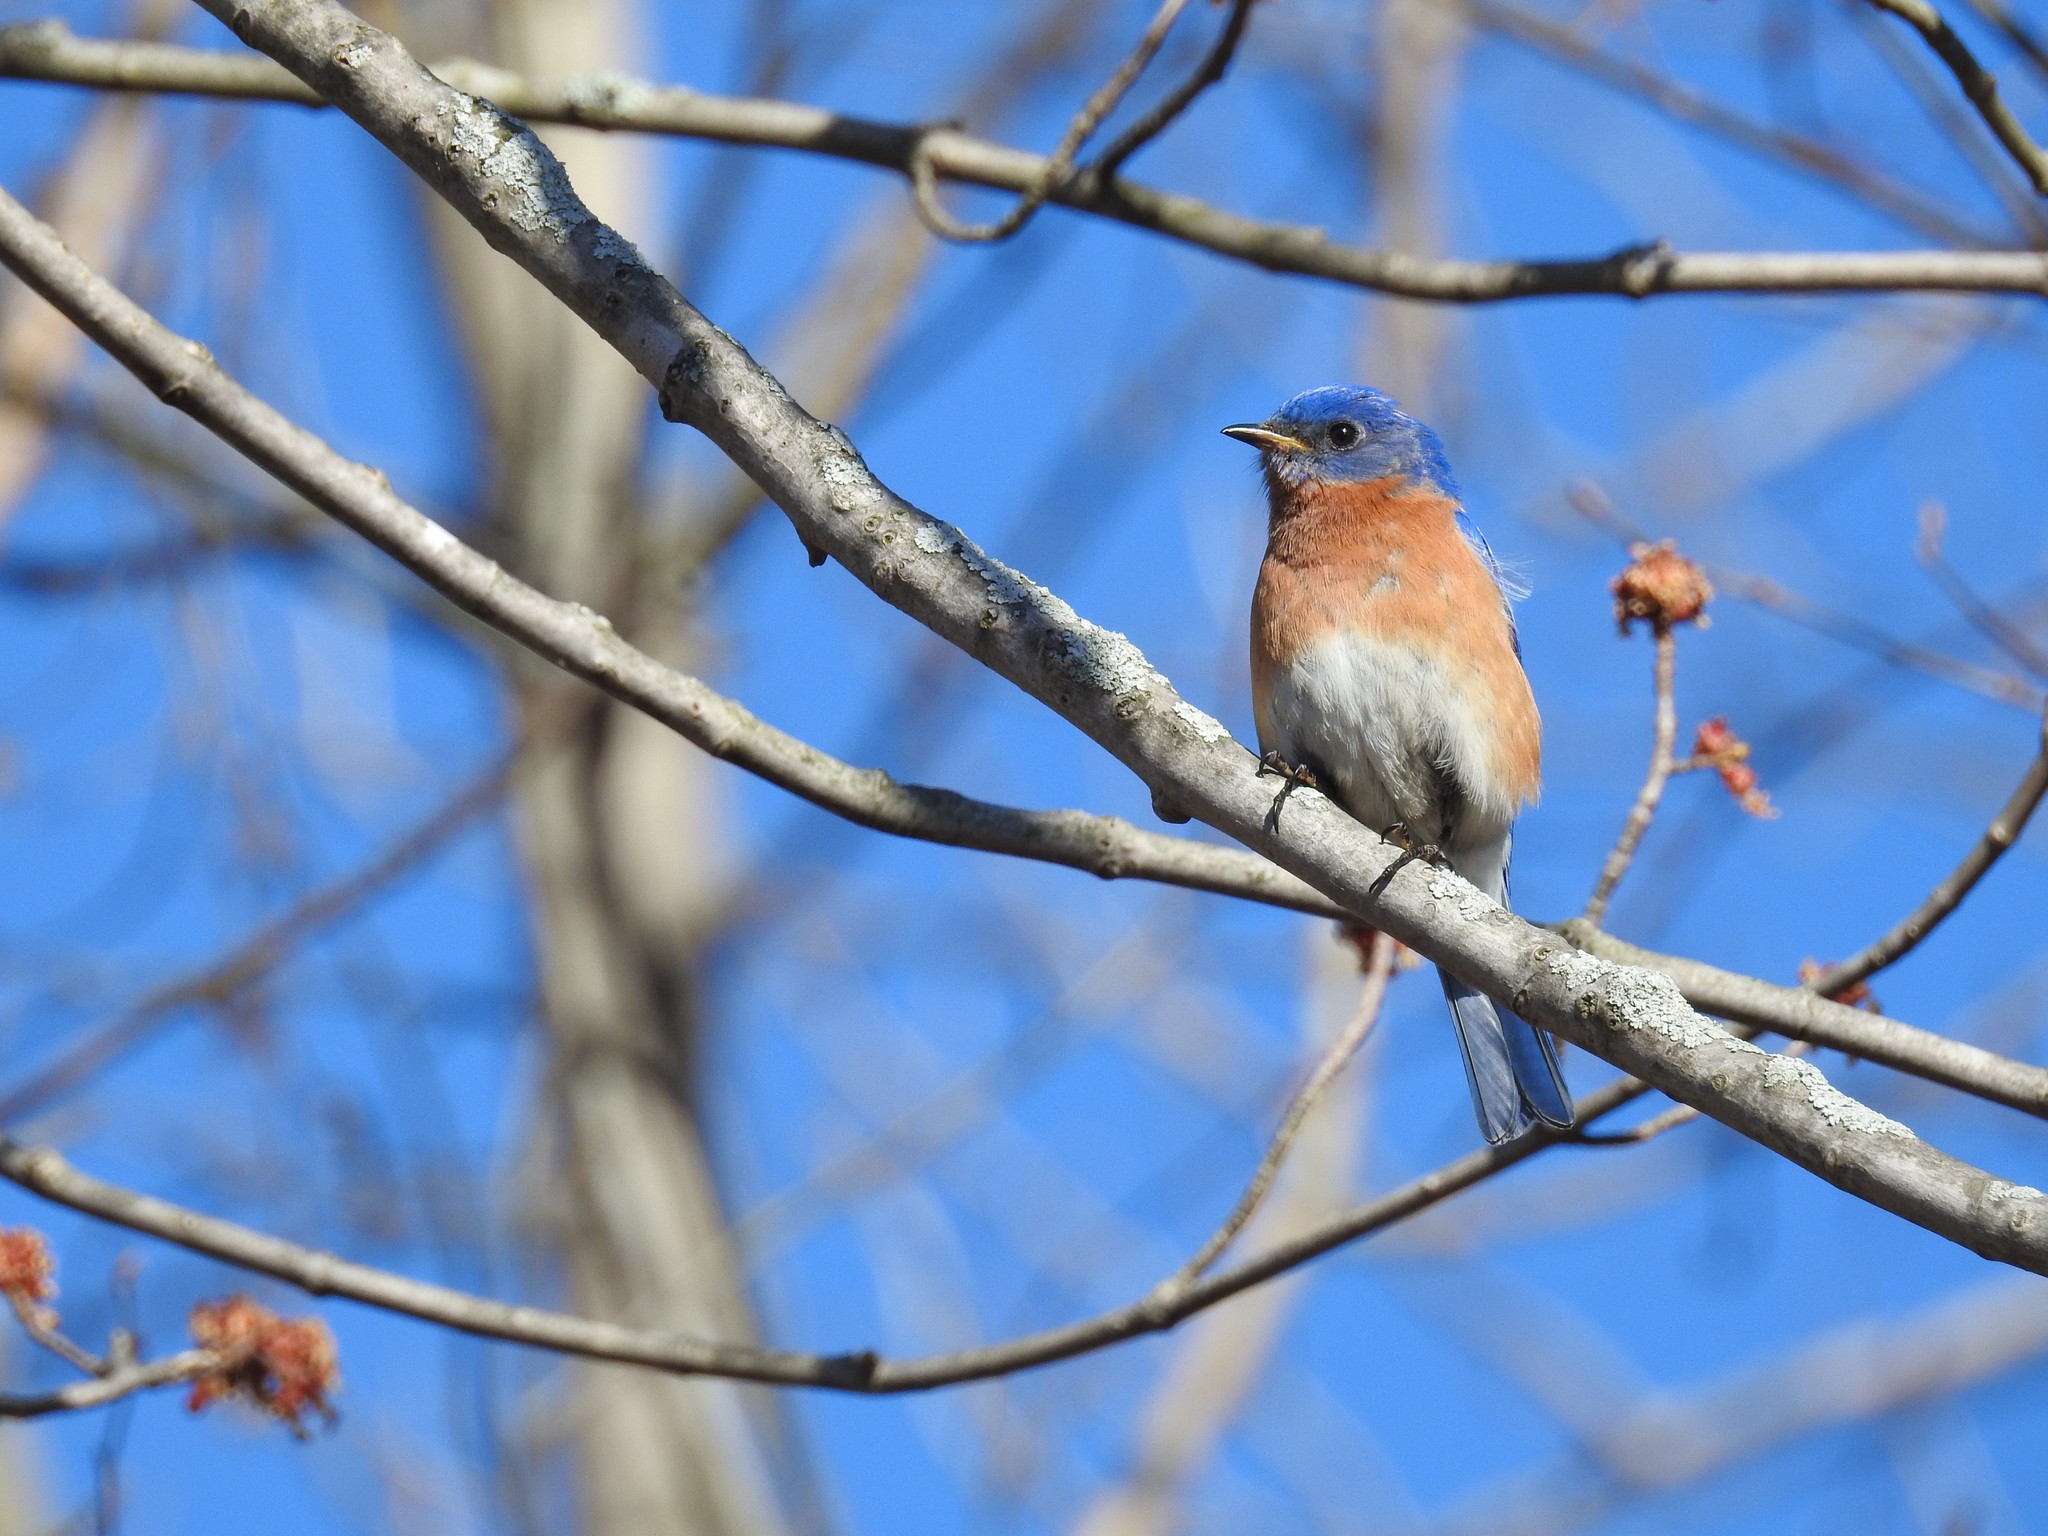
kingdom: Animalia
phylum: Chordata
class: Aves
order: Passeriformes
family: Turdidae
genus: Sialia
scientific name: Sialia sialis
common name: Eastern bluebird
